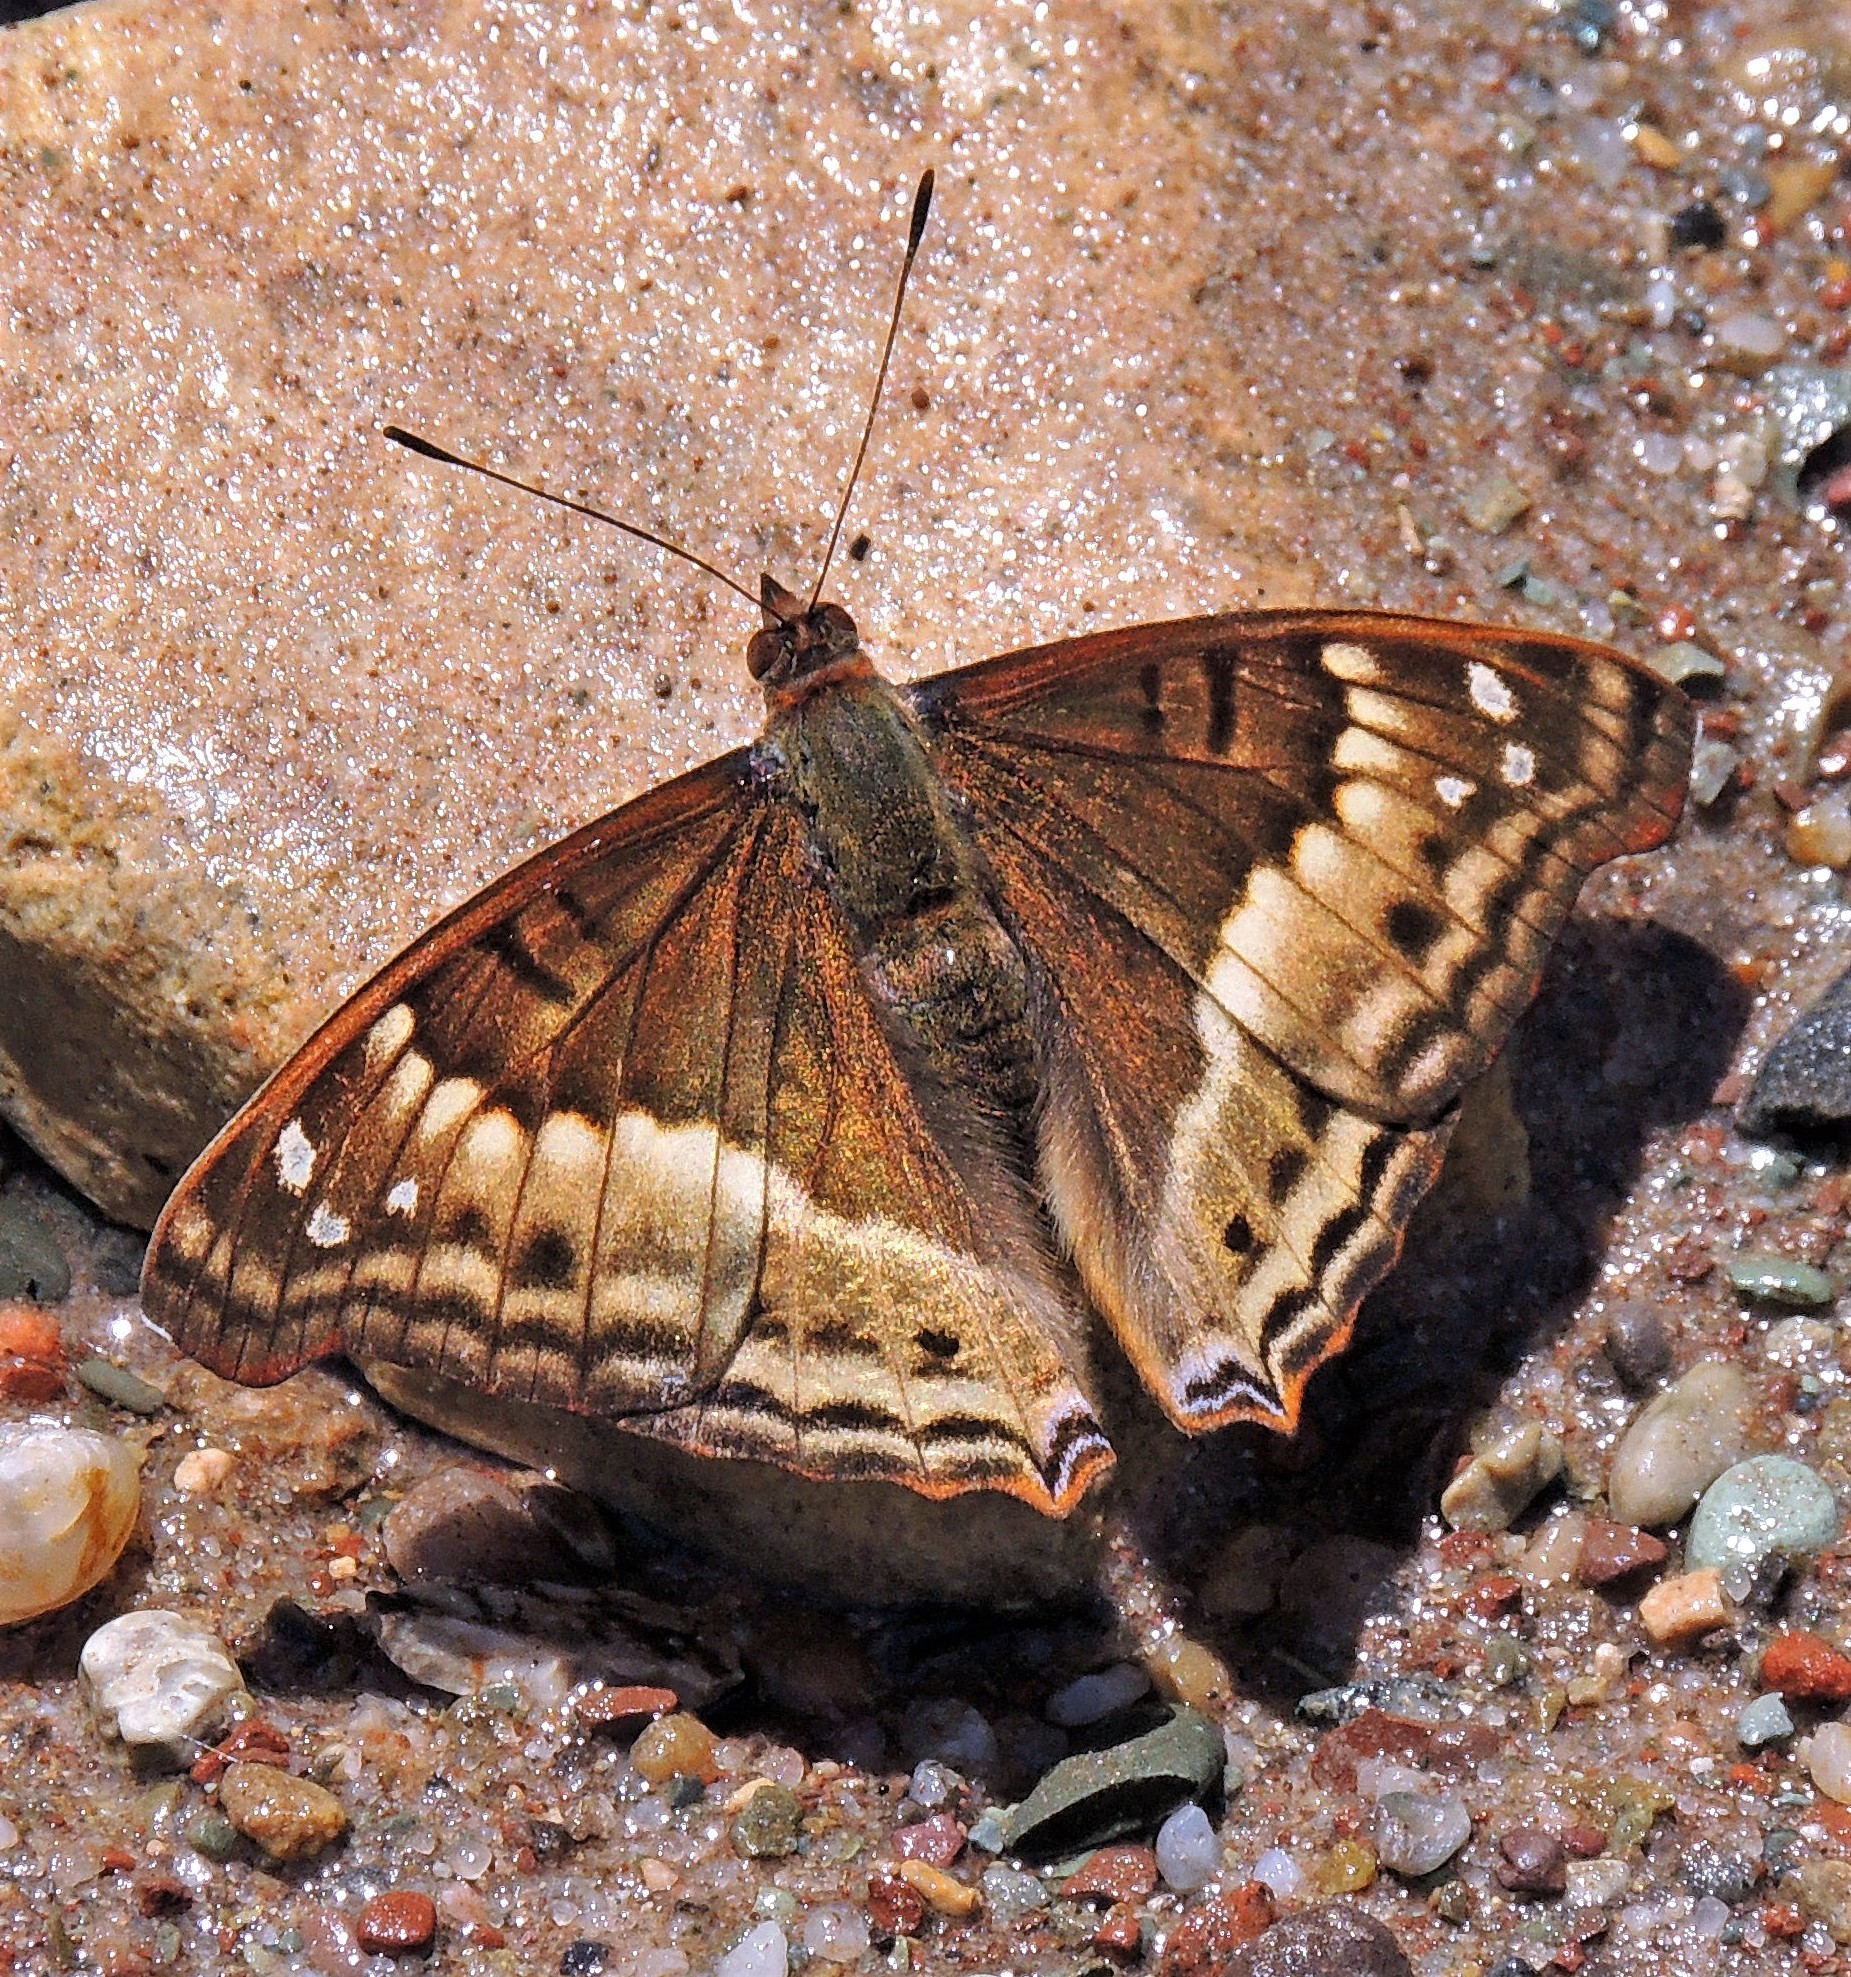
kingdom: Animalia
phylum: Arthropoda
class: Insecta
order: Lepidoptera
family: Nymphalidae
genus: Doxocopa
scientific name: Doxocopa cyane
